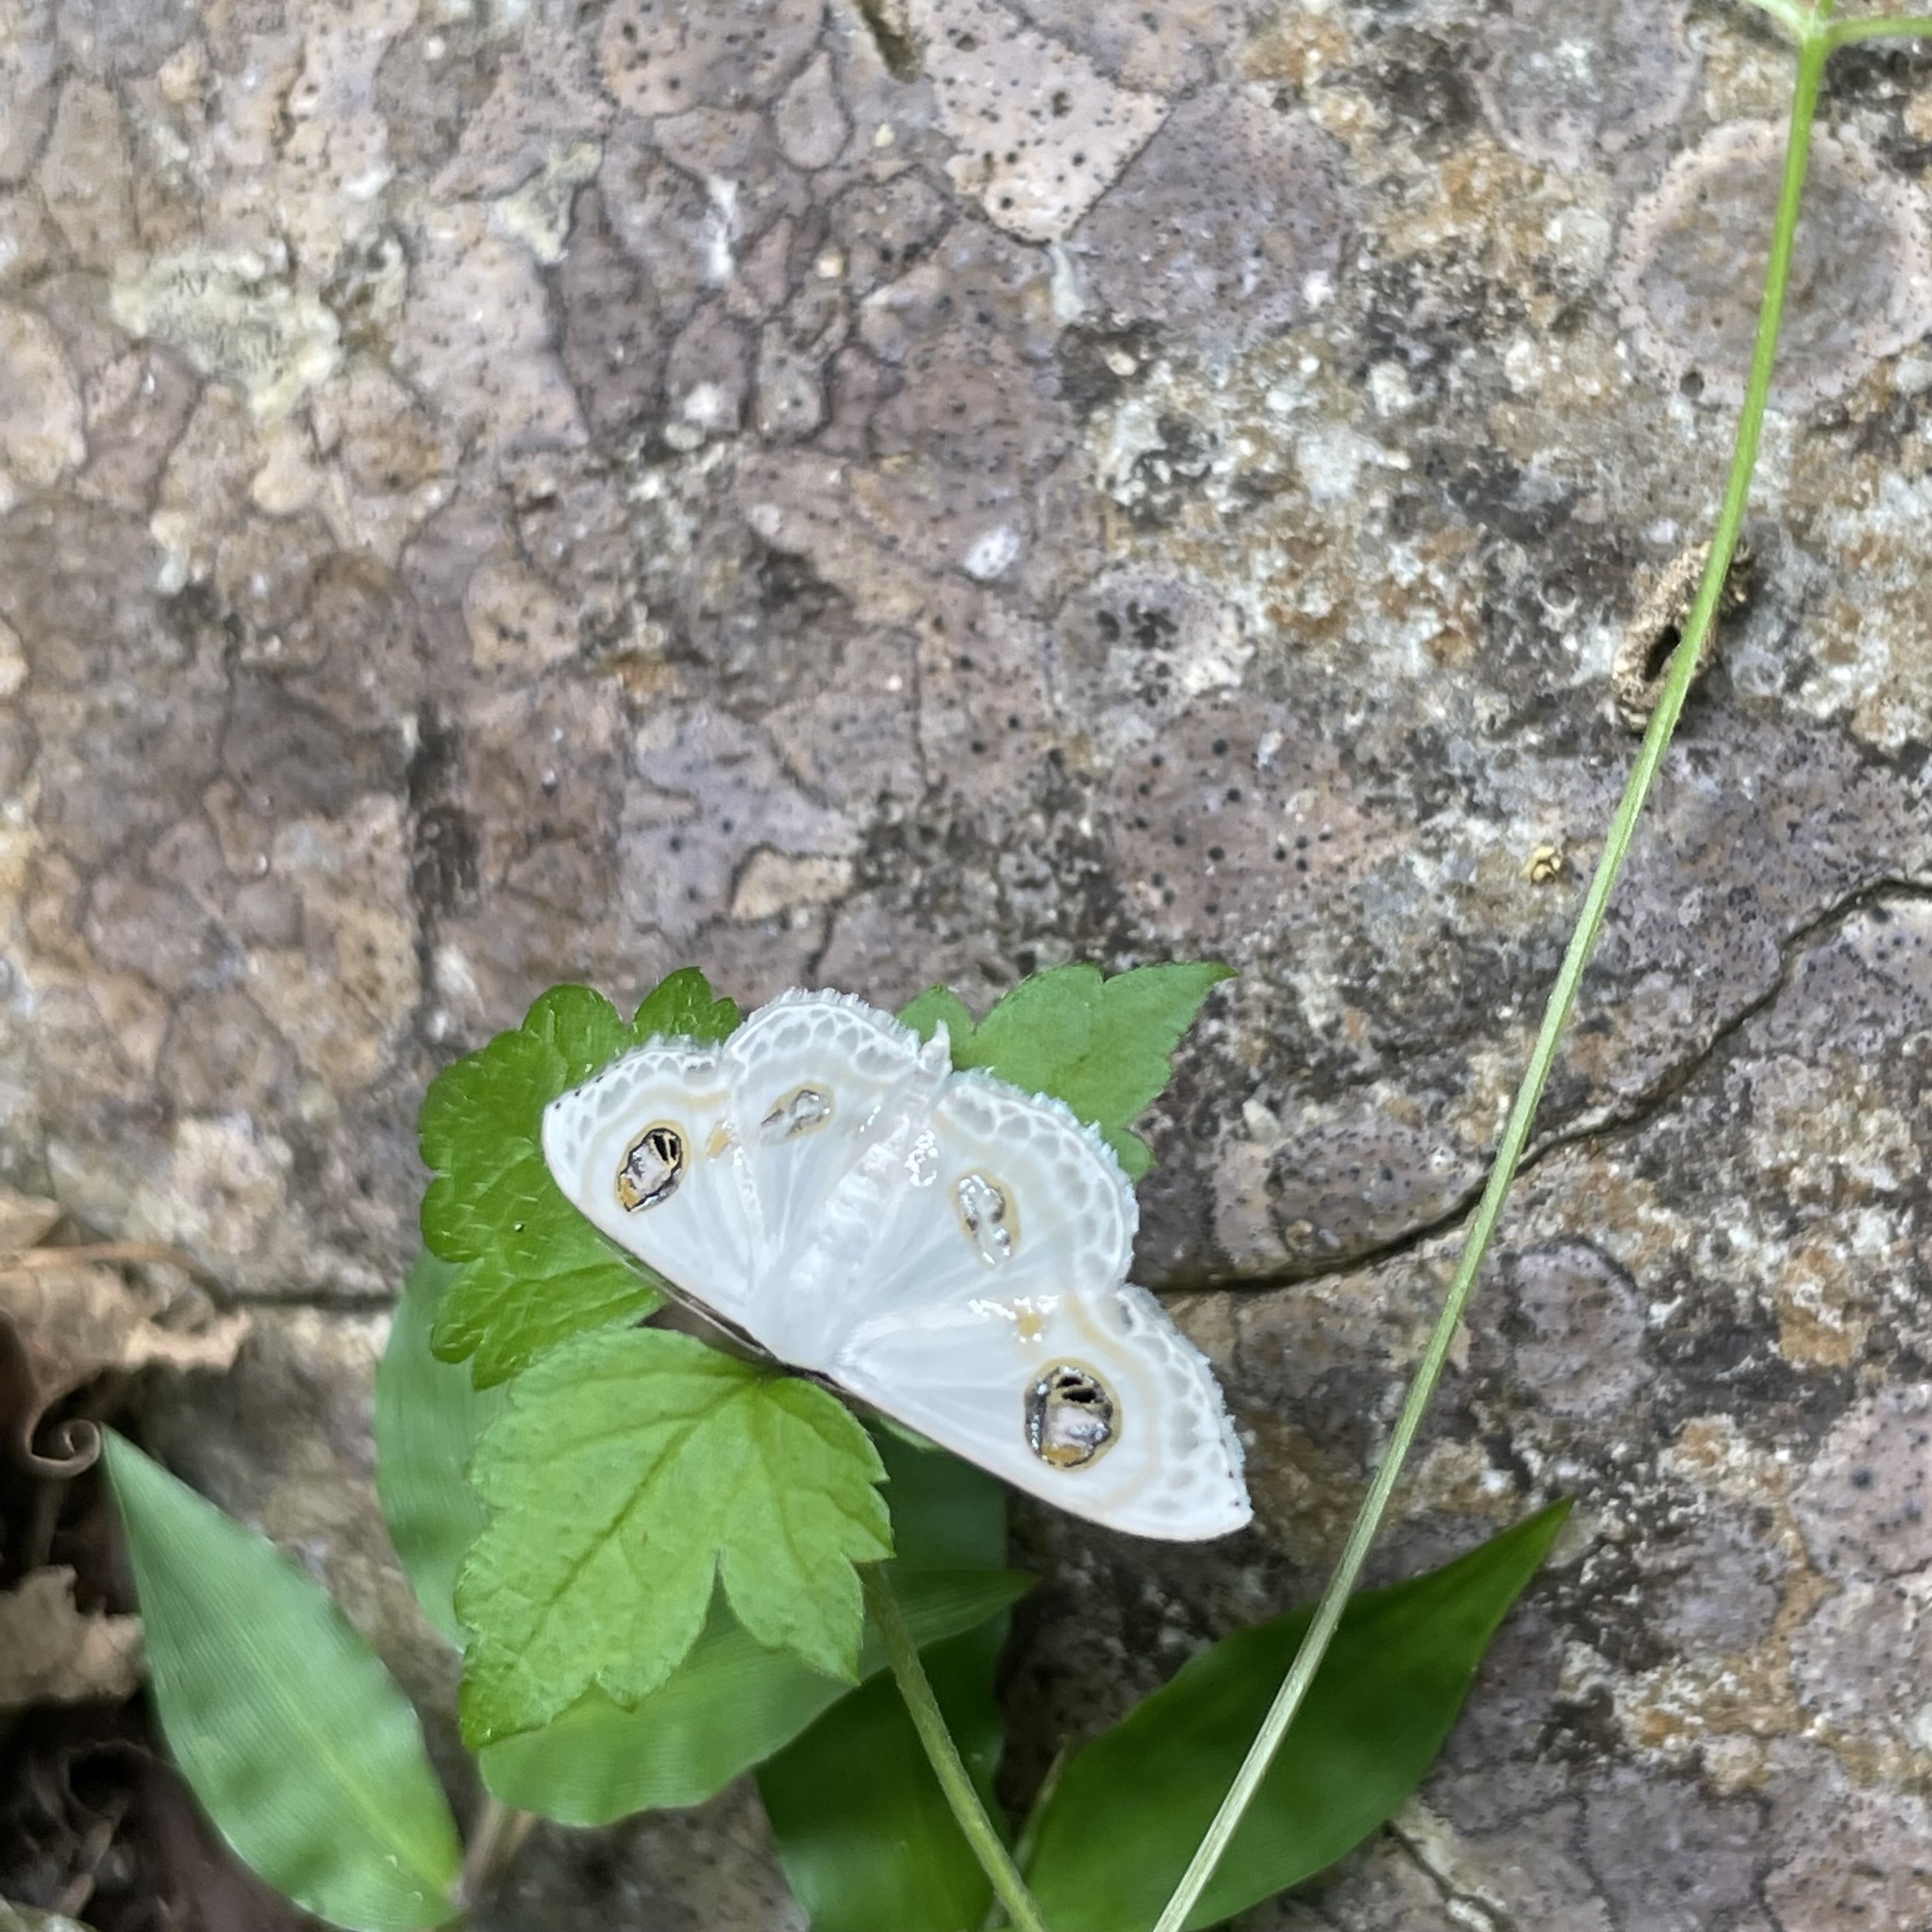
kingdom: Animalia
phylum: Arthropoda
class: Insecta
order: Lepidoptera
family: Geometridae
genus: Problepsis
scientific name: Problepsis albidior
